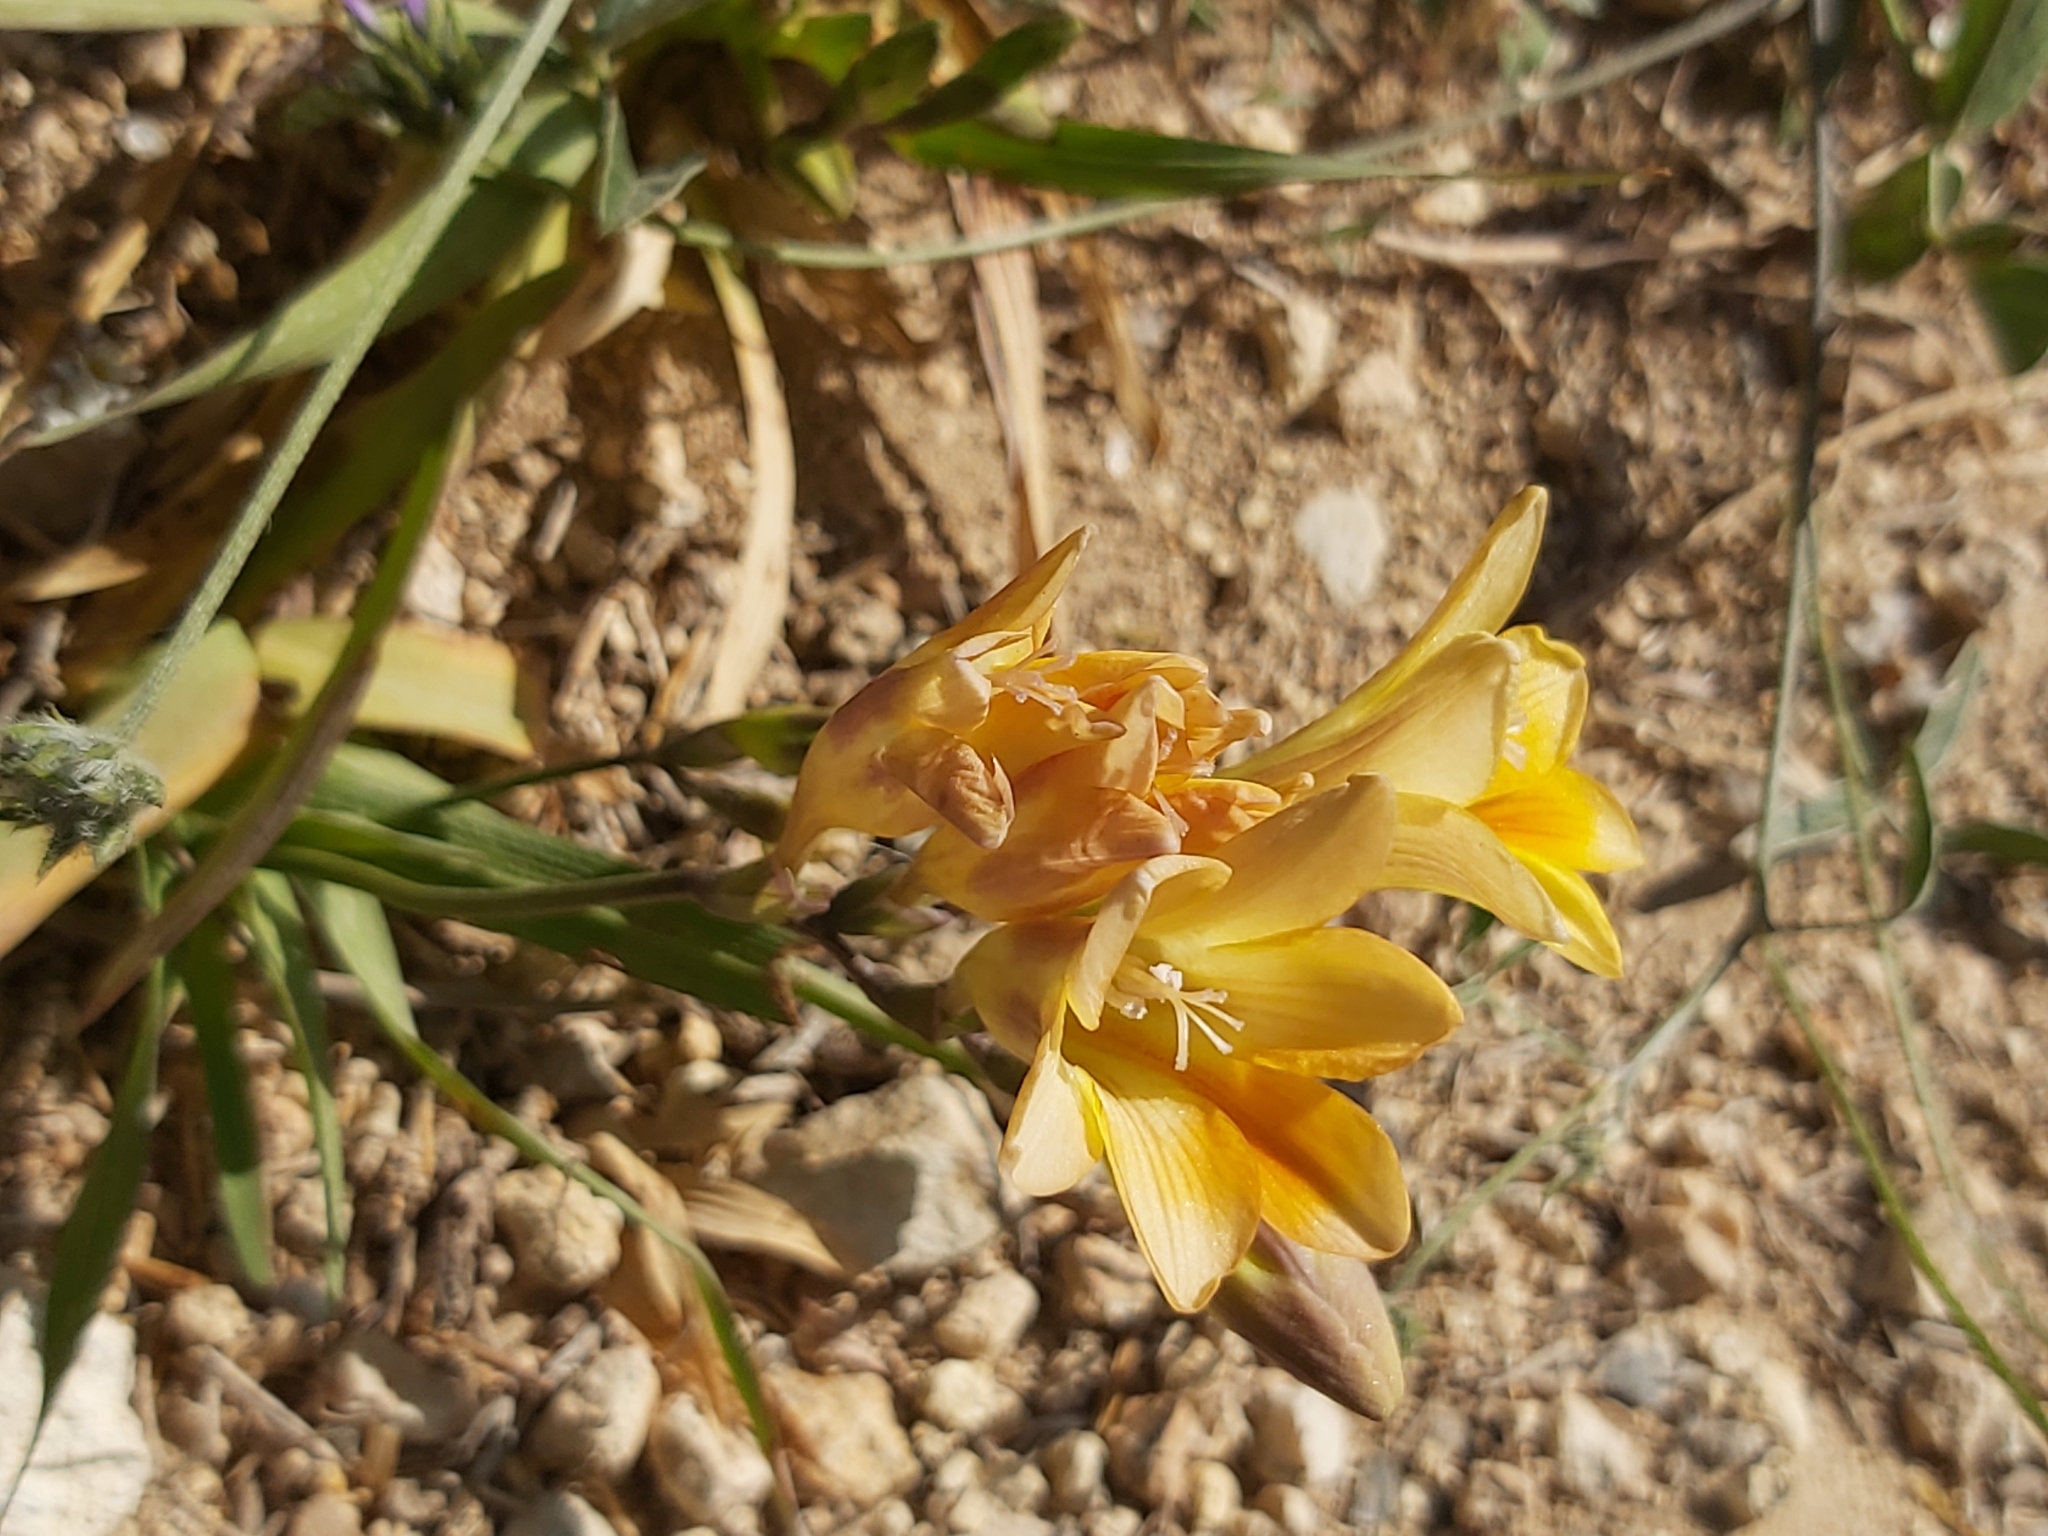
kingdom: Plantae
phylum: Tracheophyta
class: Liliopsida
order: Asparagales
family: Iridaceae
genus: Freesia
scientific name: Freesia leichtlinii
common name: Freesia
